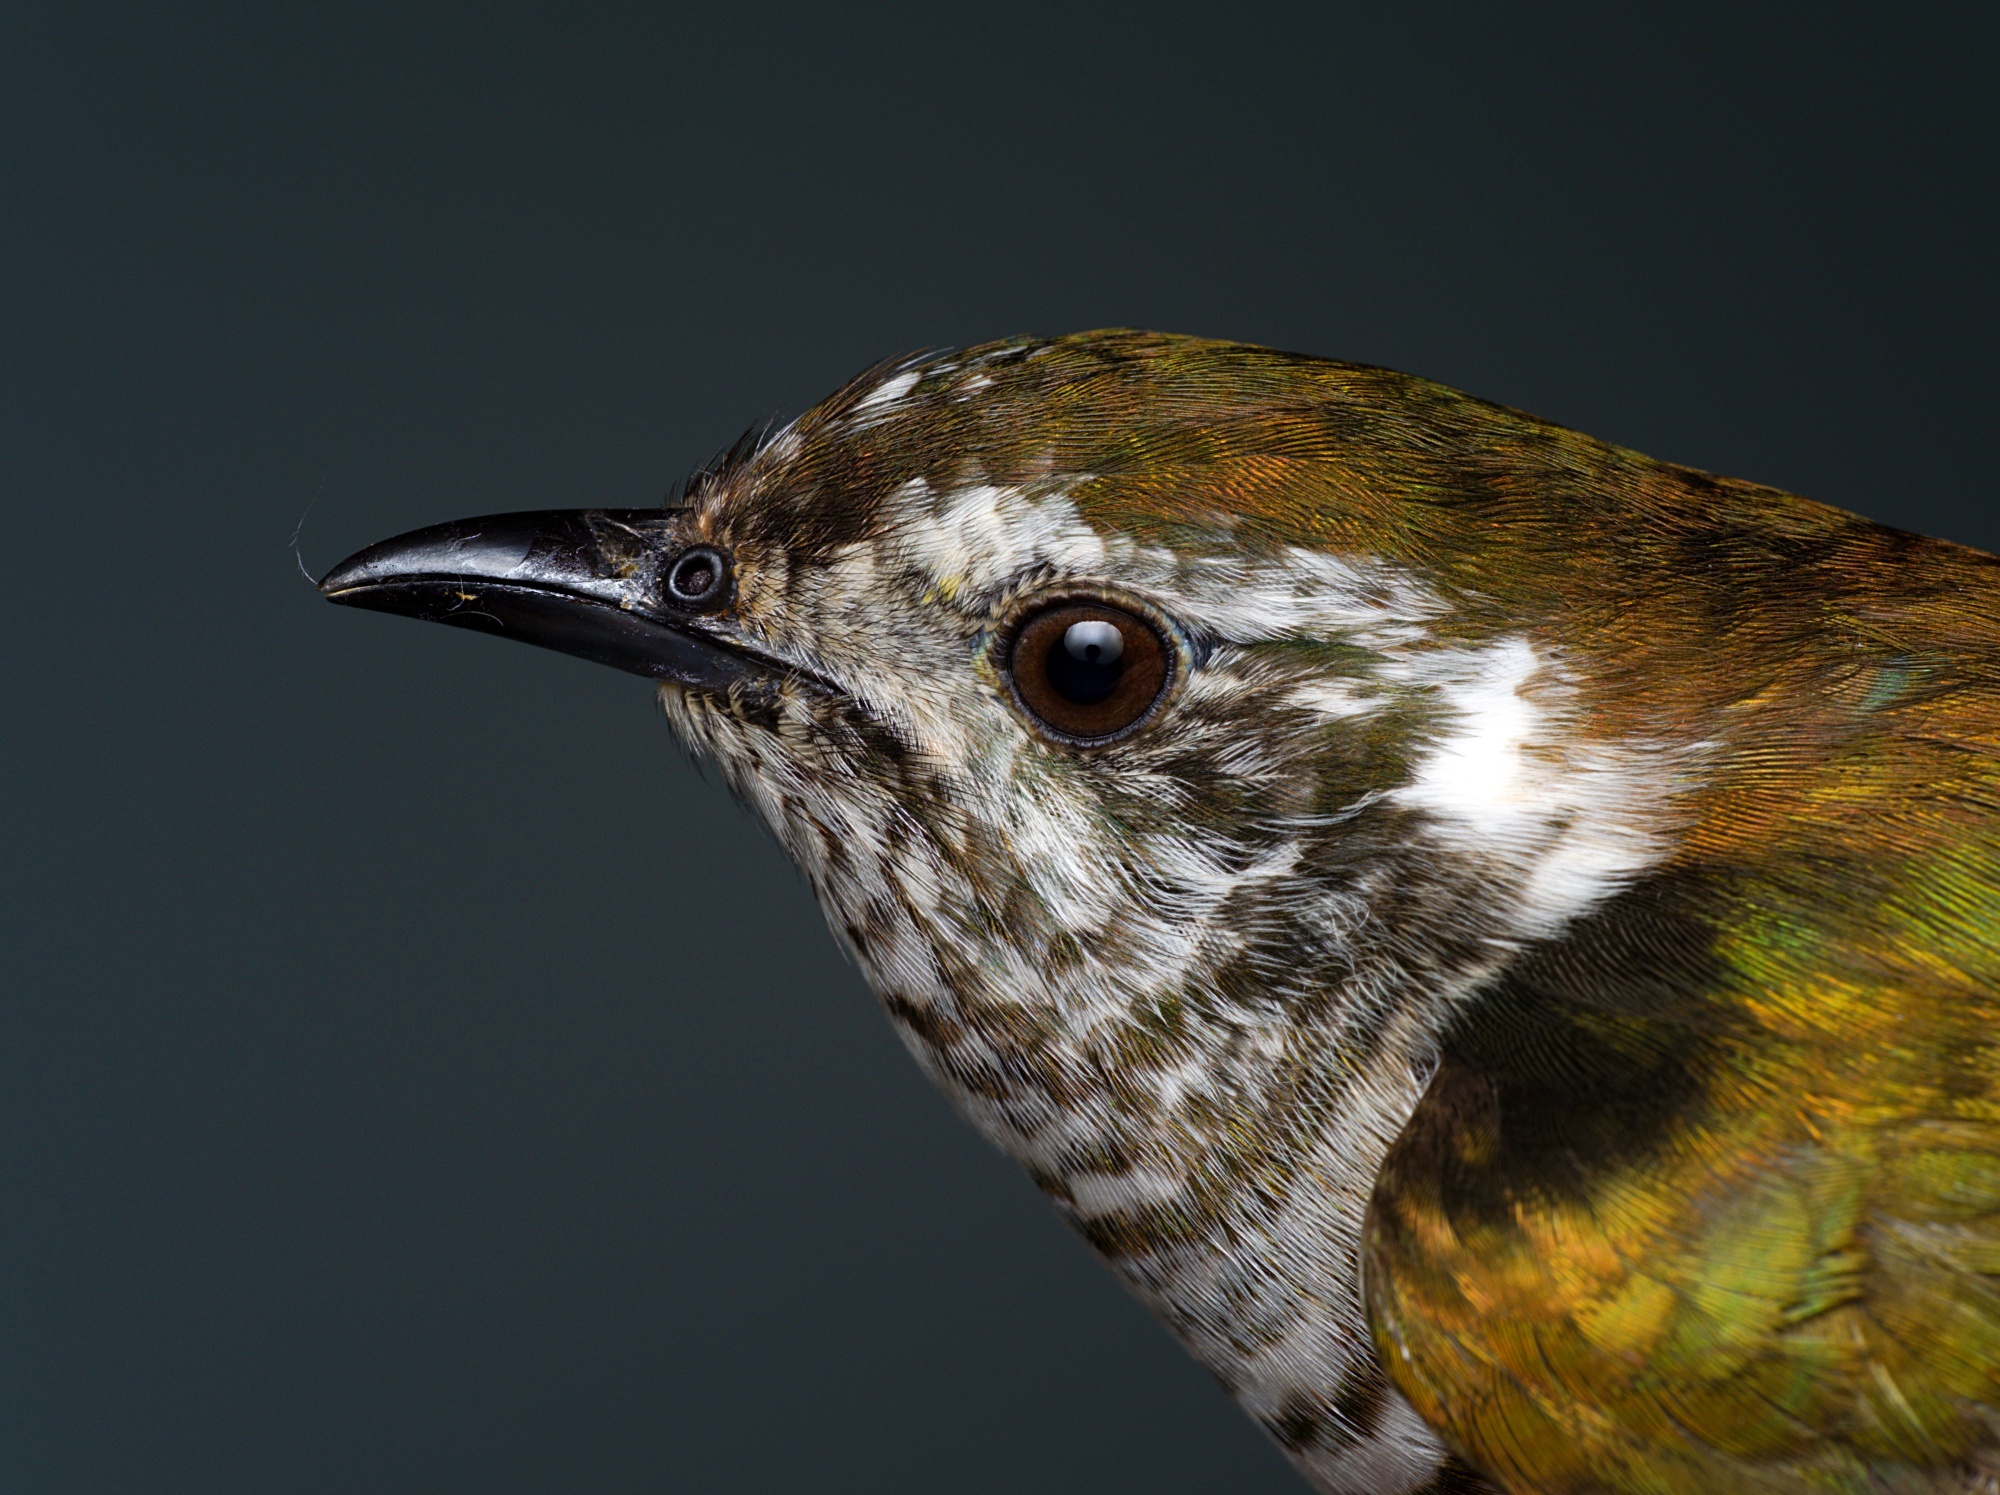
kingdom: Animalia
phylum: Chordata
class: Aves
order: Cuculiformes
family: Cuculidae
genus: Chrysococcyx
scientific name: Chrysococcyx lucidus
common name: Shining bronze cuckoo
